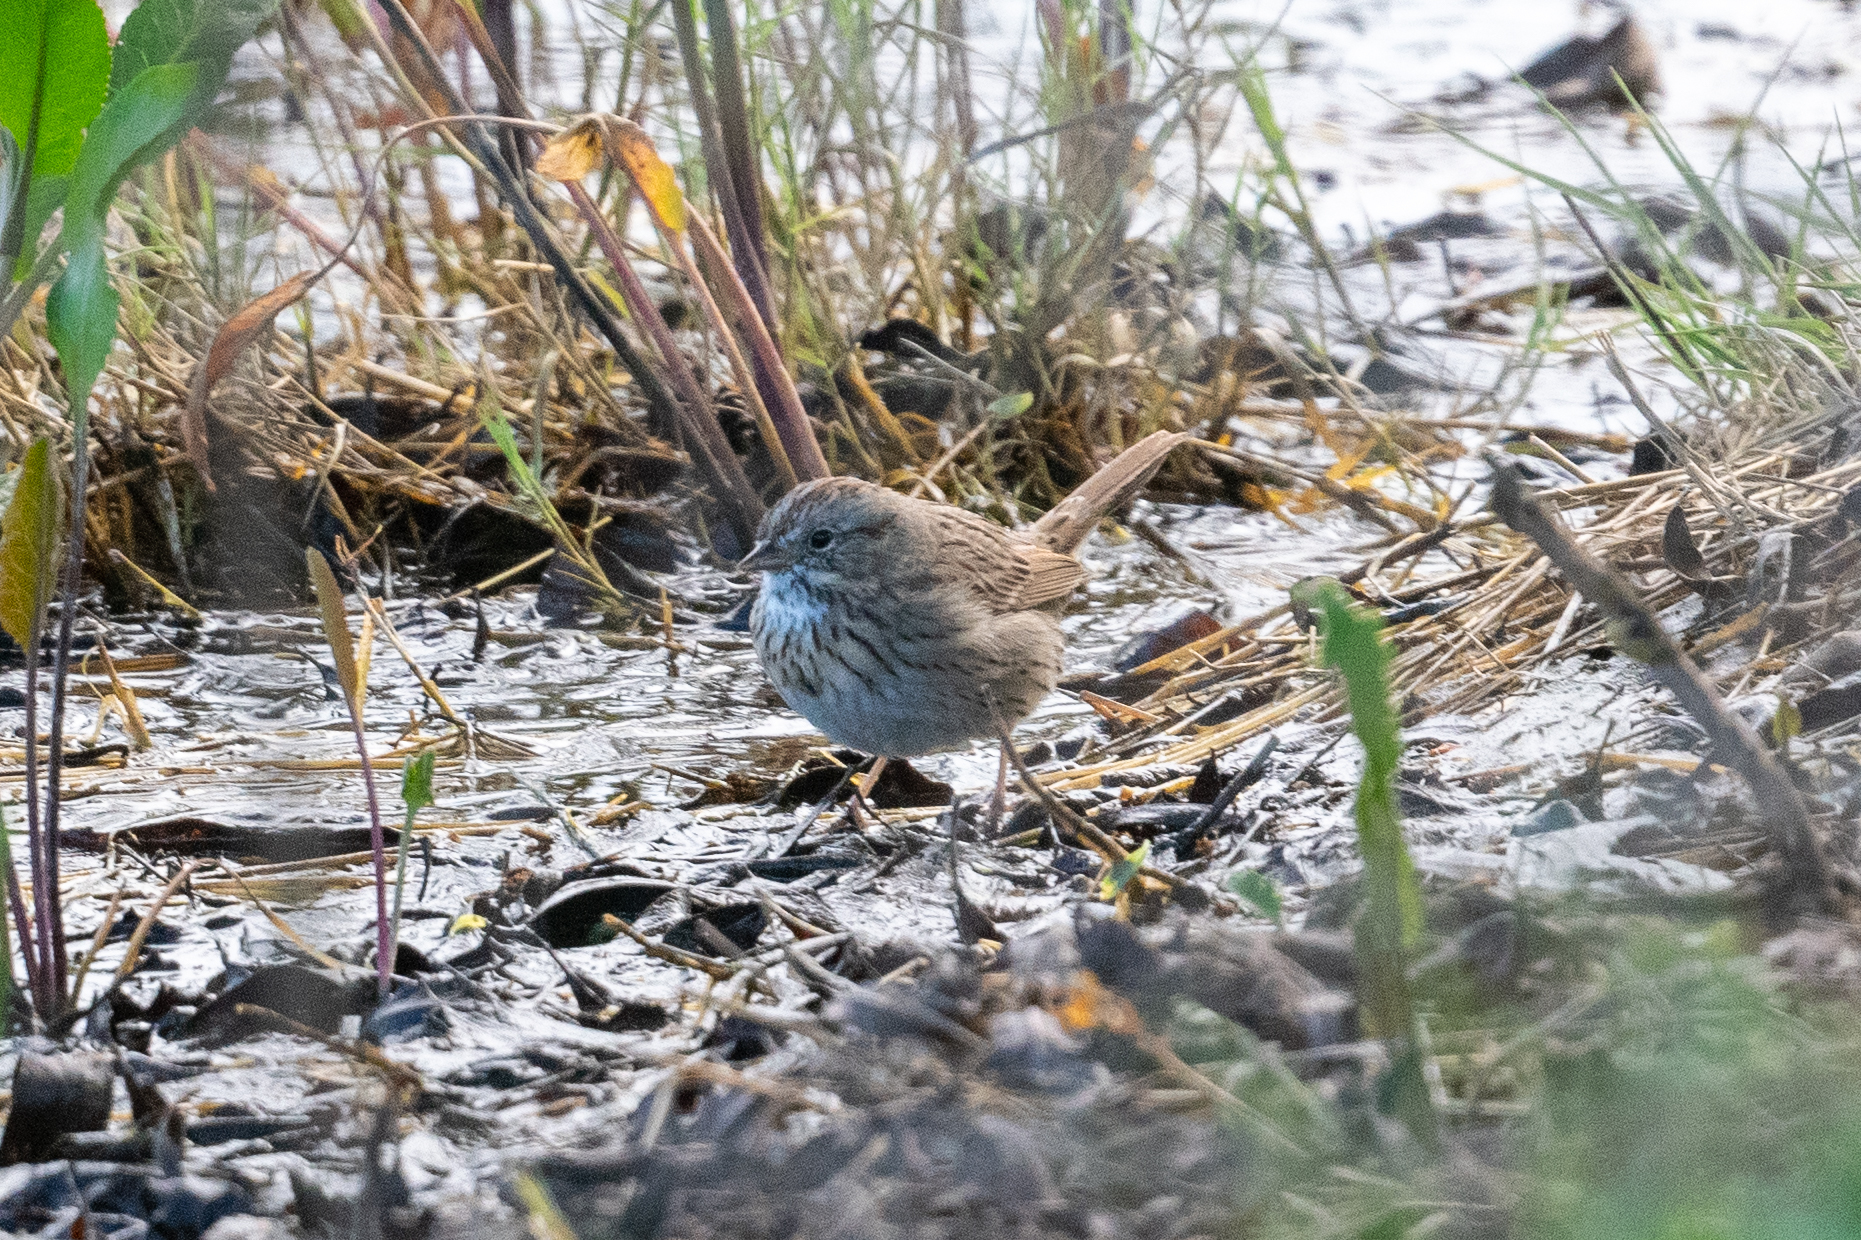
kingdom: Animalia
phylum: Chordata
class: Aves
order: Passeriformes
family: Passerellidae
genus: Melospiza
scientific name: Melospiza lincolnii
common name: Lincoln's sparrow
